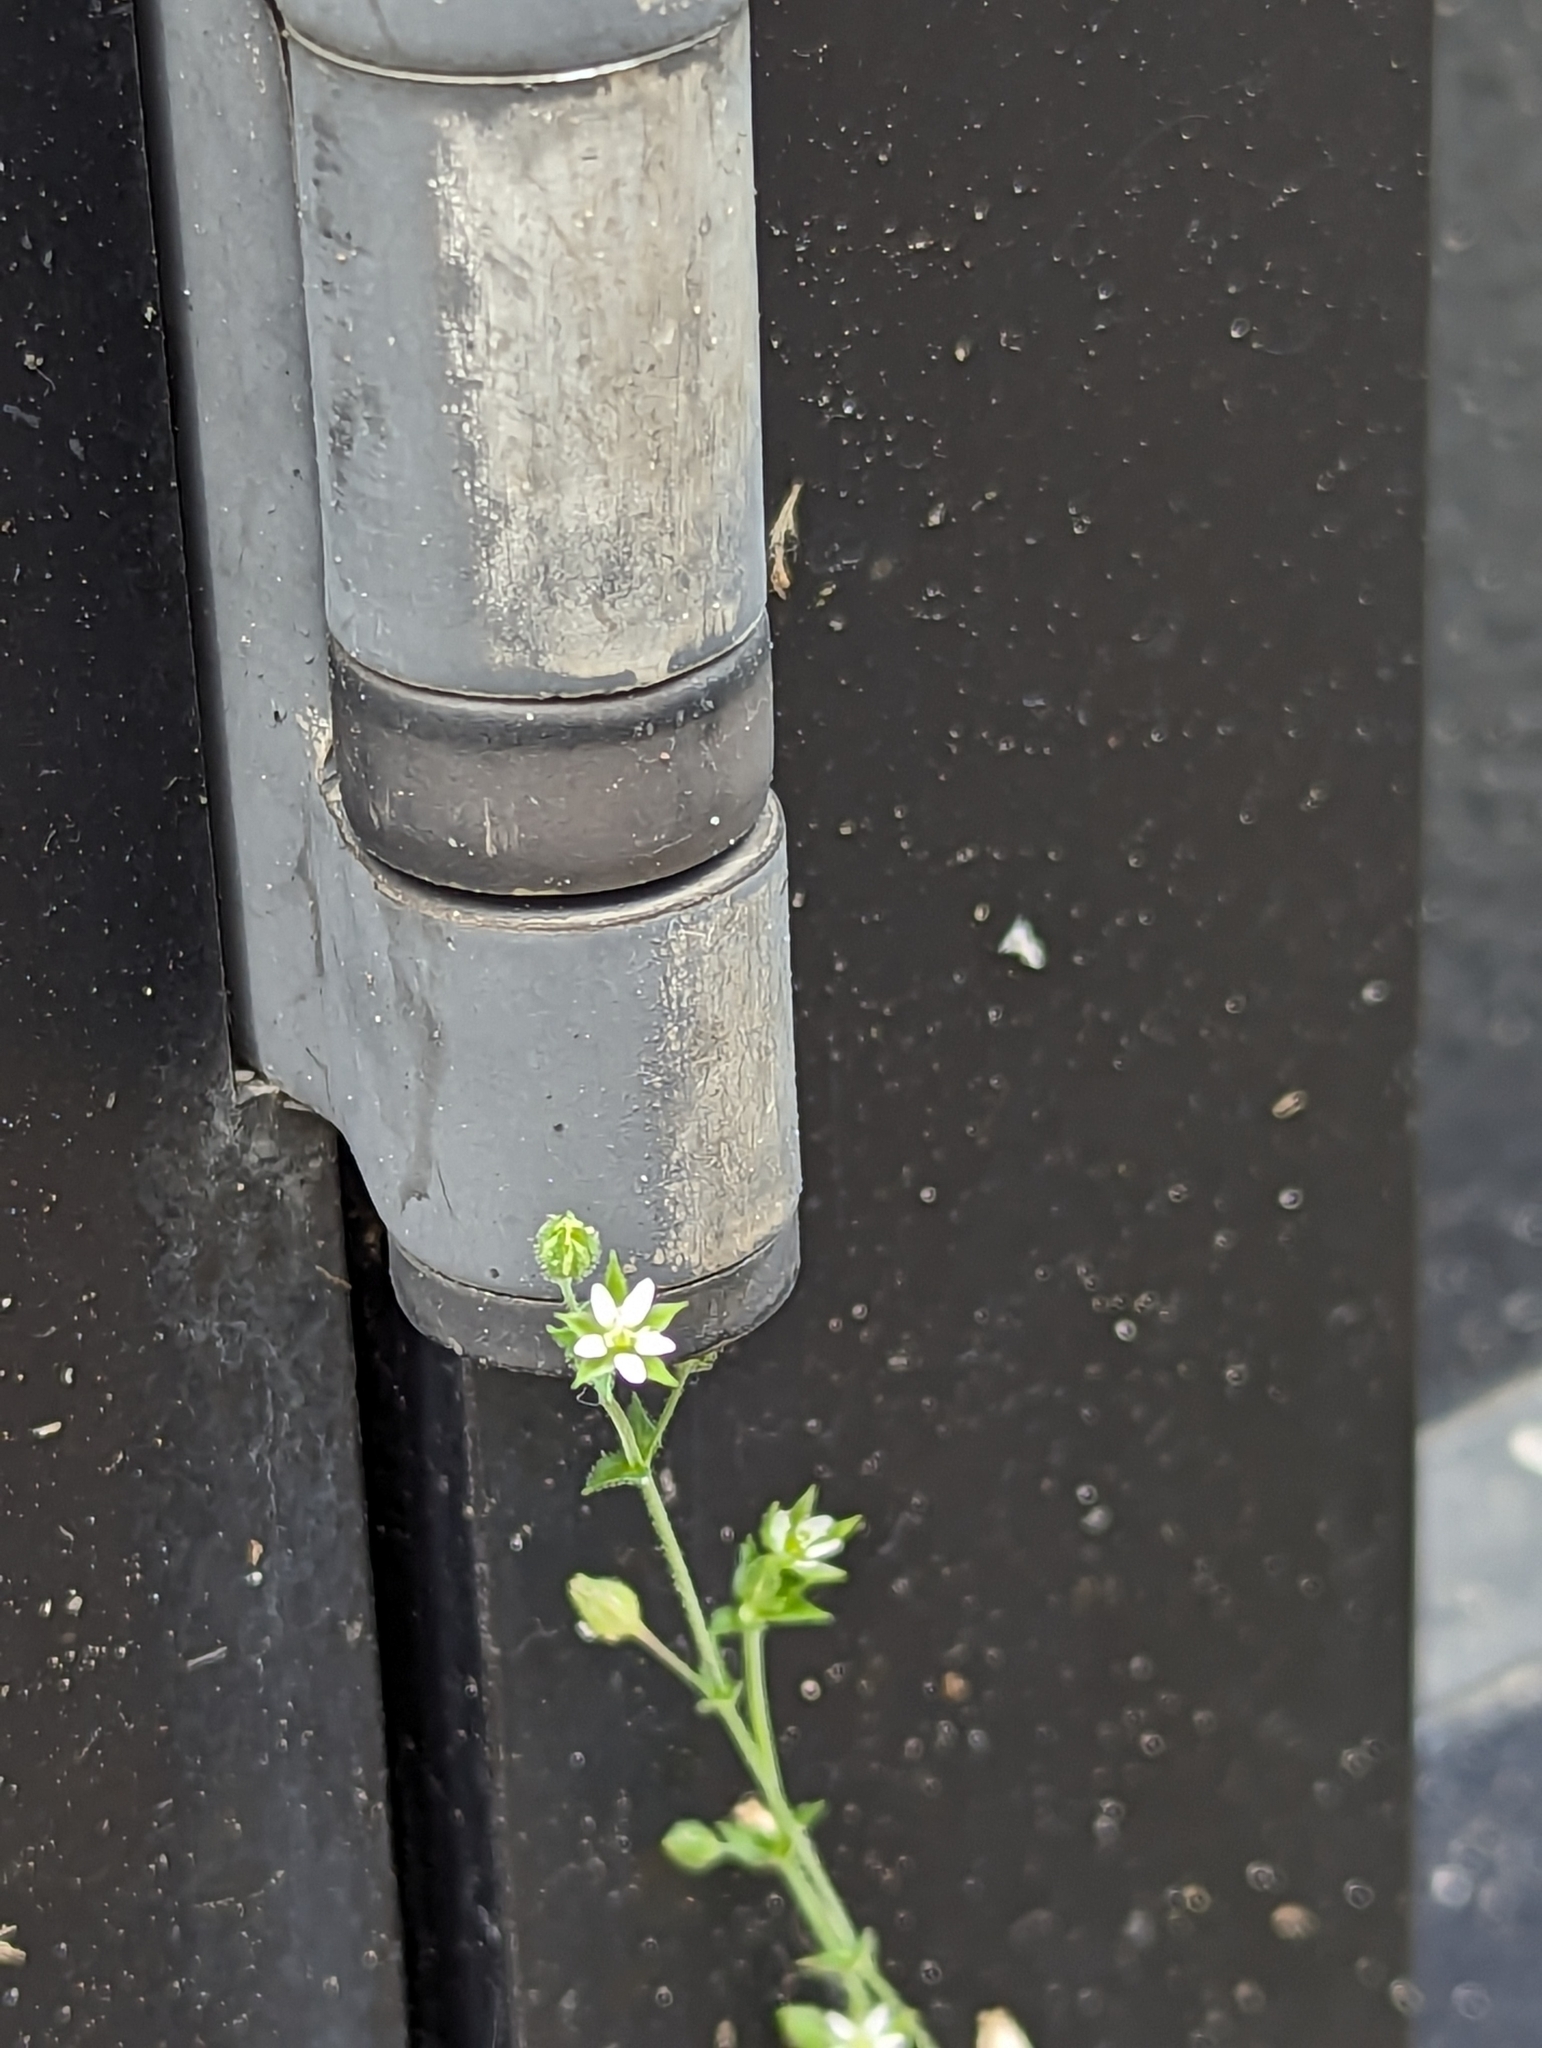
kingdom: Plantae
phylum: Tracheophyta
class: Magnoliopsida
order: Caryophyllales
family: Caryophyllaceae
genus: Arenaria
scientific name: Arenaria serpyllifolia
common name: Thyme-leaved sandwort
